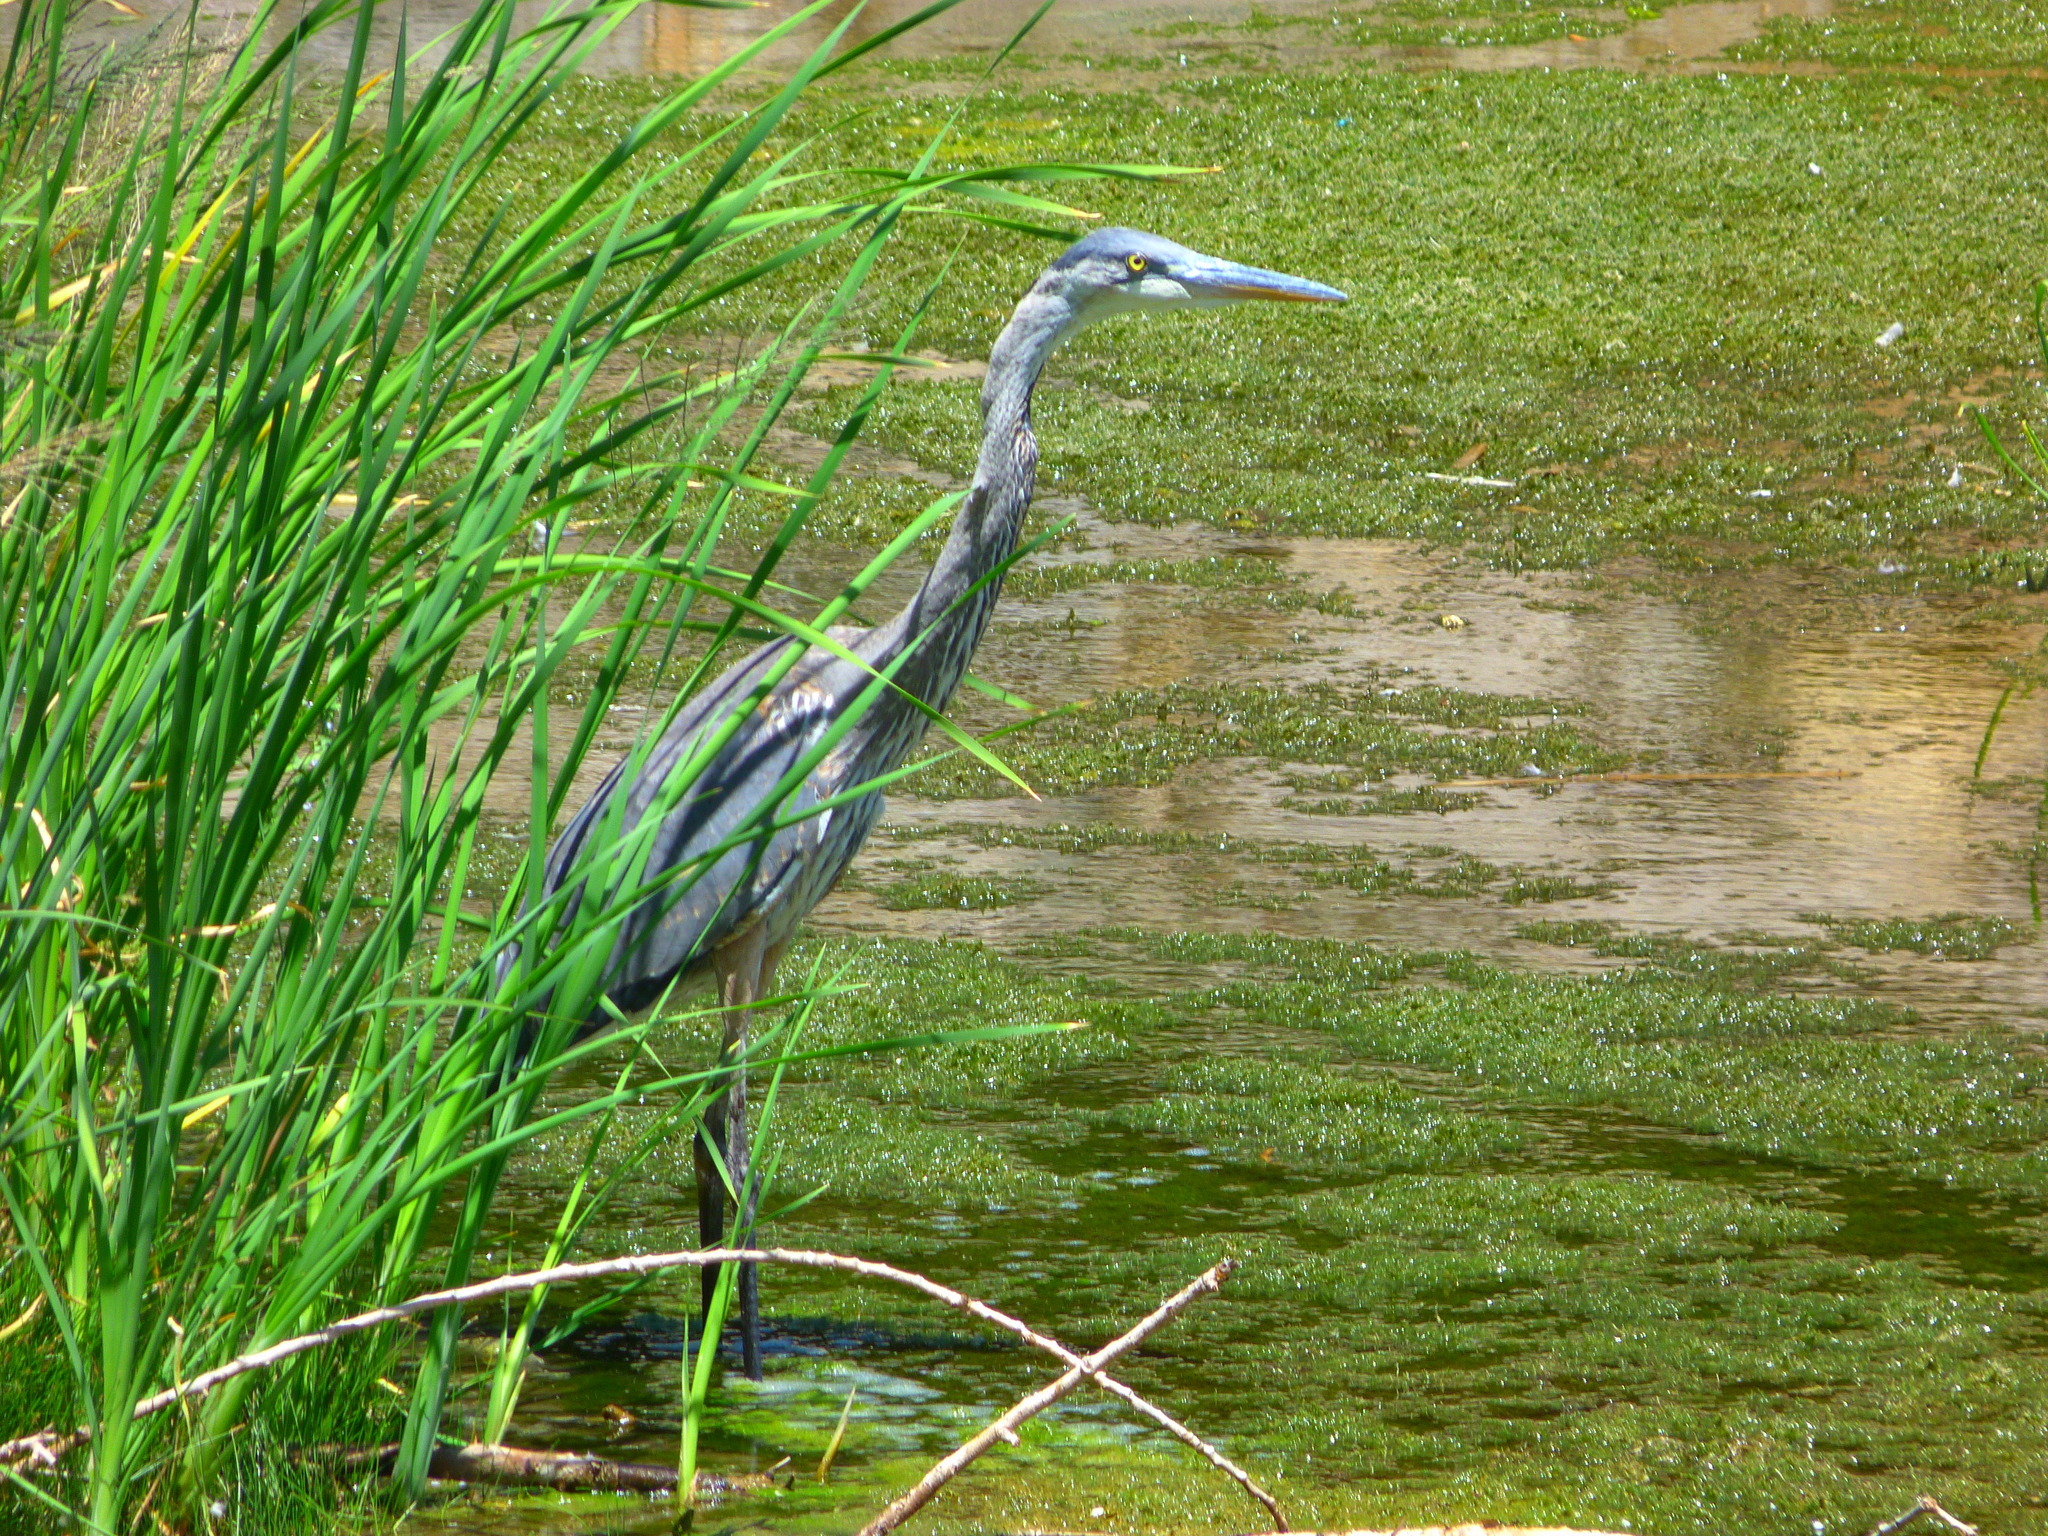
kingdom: Animalia
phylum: Chordata
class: Aves
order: Pelecaniformes
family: Ardeidae
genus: Ardea
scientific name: Ardea herodias
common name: Great blue heron
